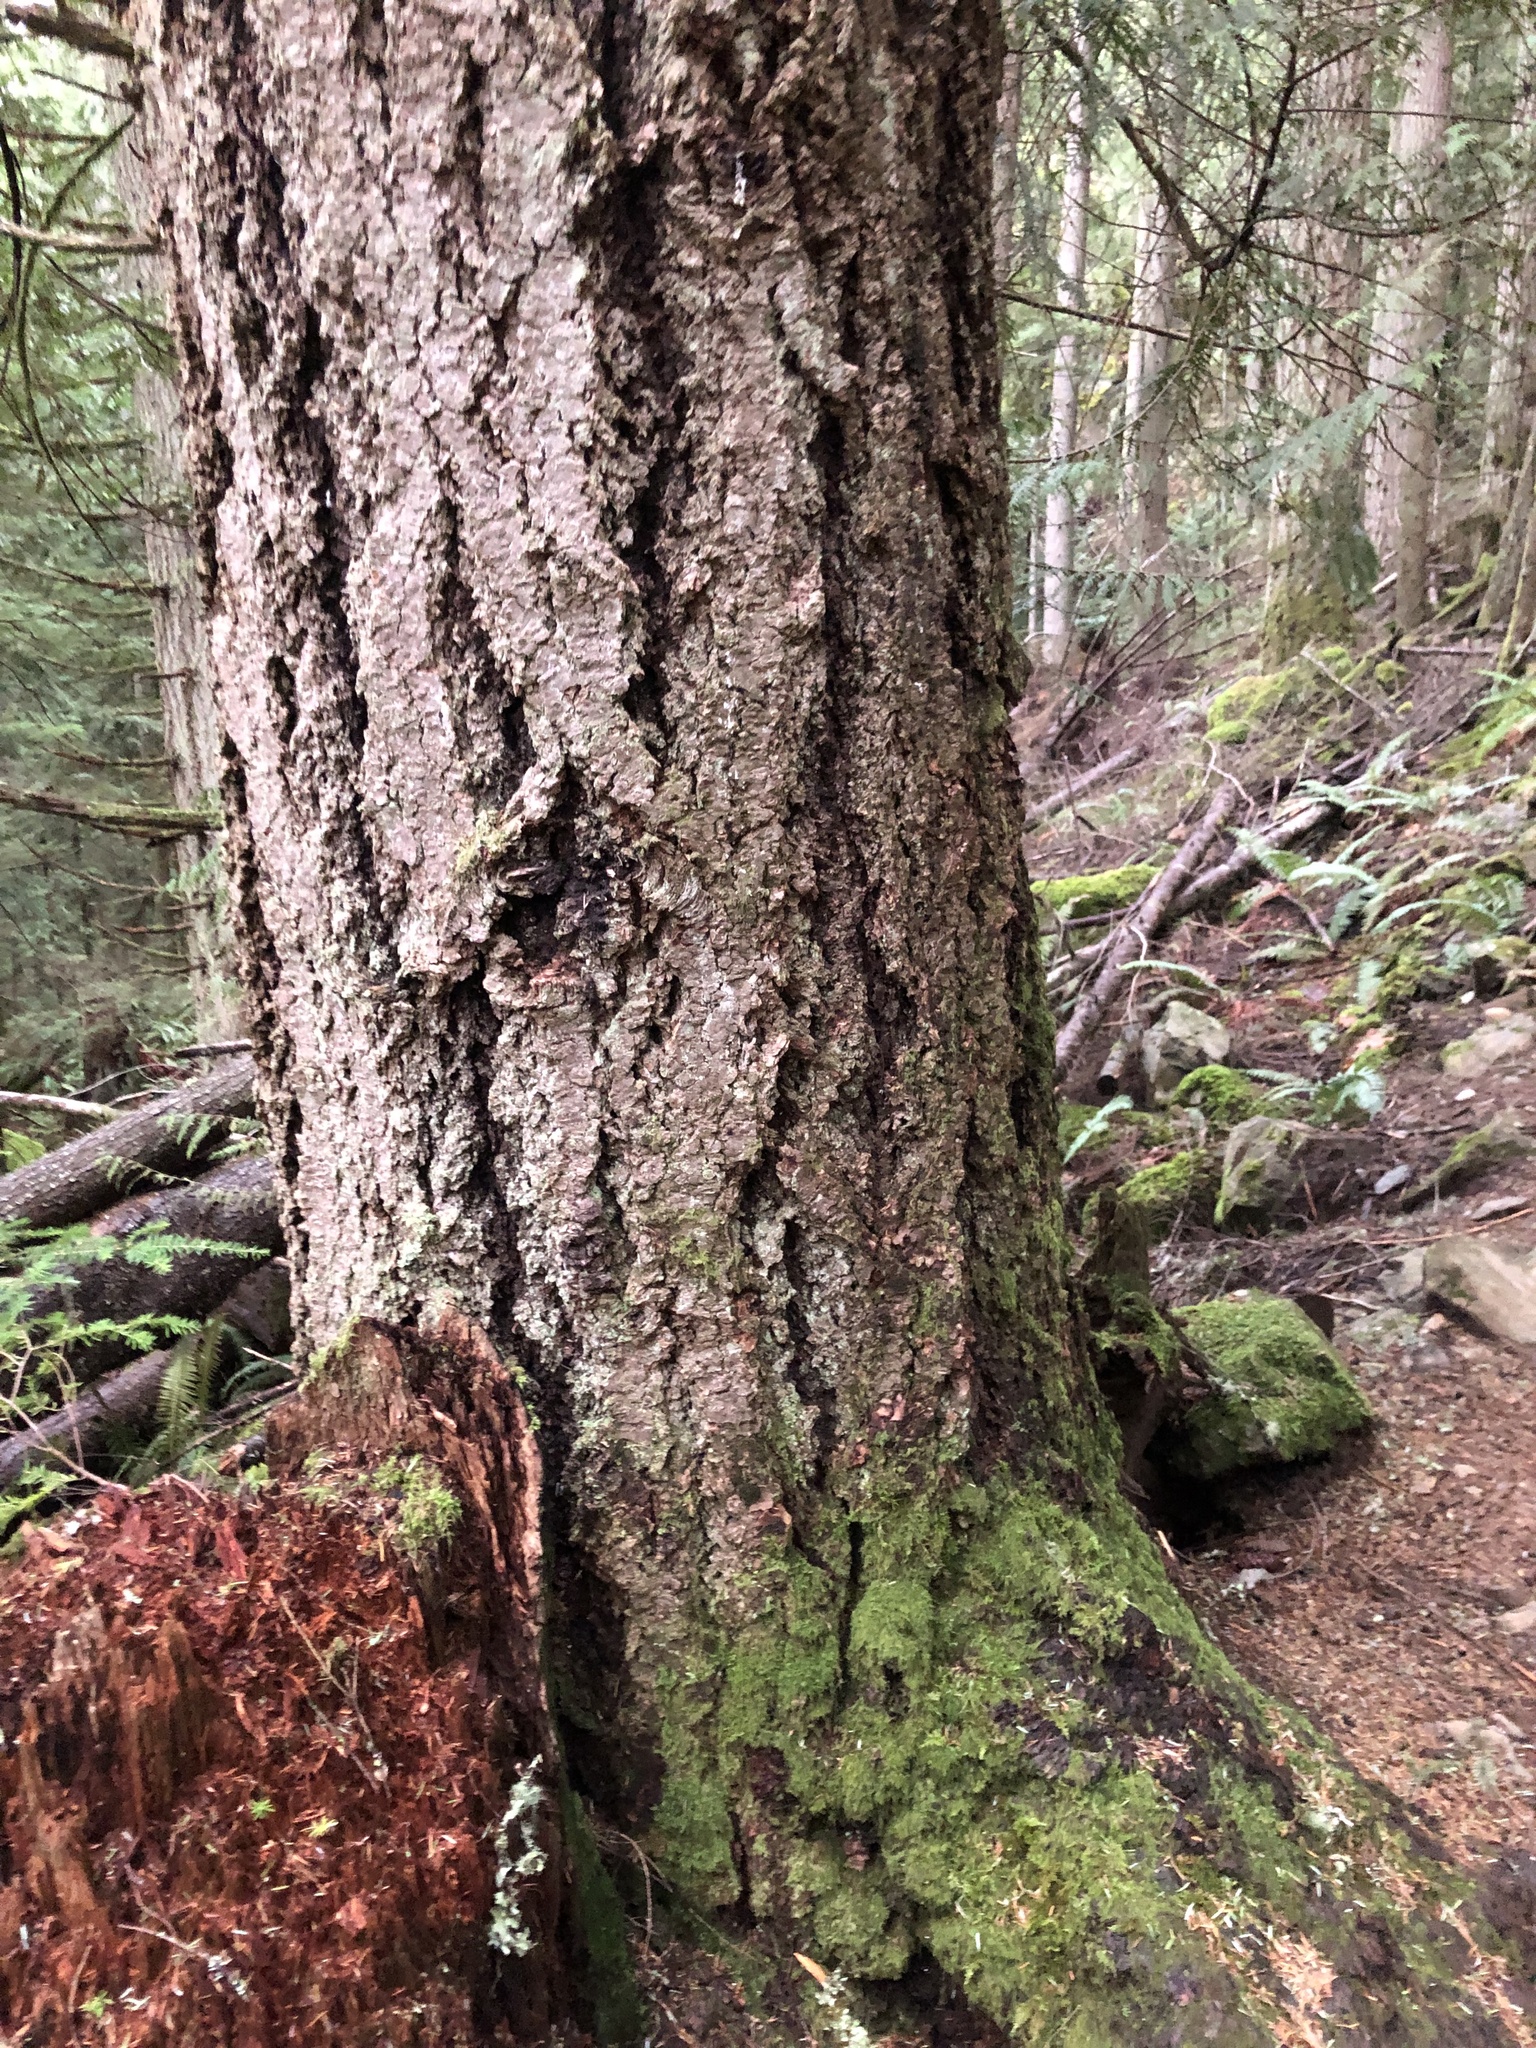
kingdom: Plantae
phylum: Tracheophyta
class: Pinopsida
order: Pinales
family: Pinaceae
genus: Pseudotsuga
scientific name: Pseudotsuga menziesii
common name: Douglas fir
